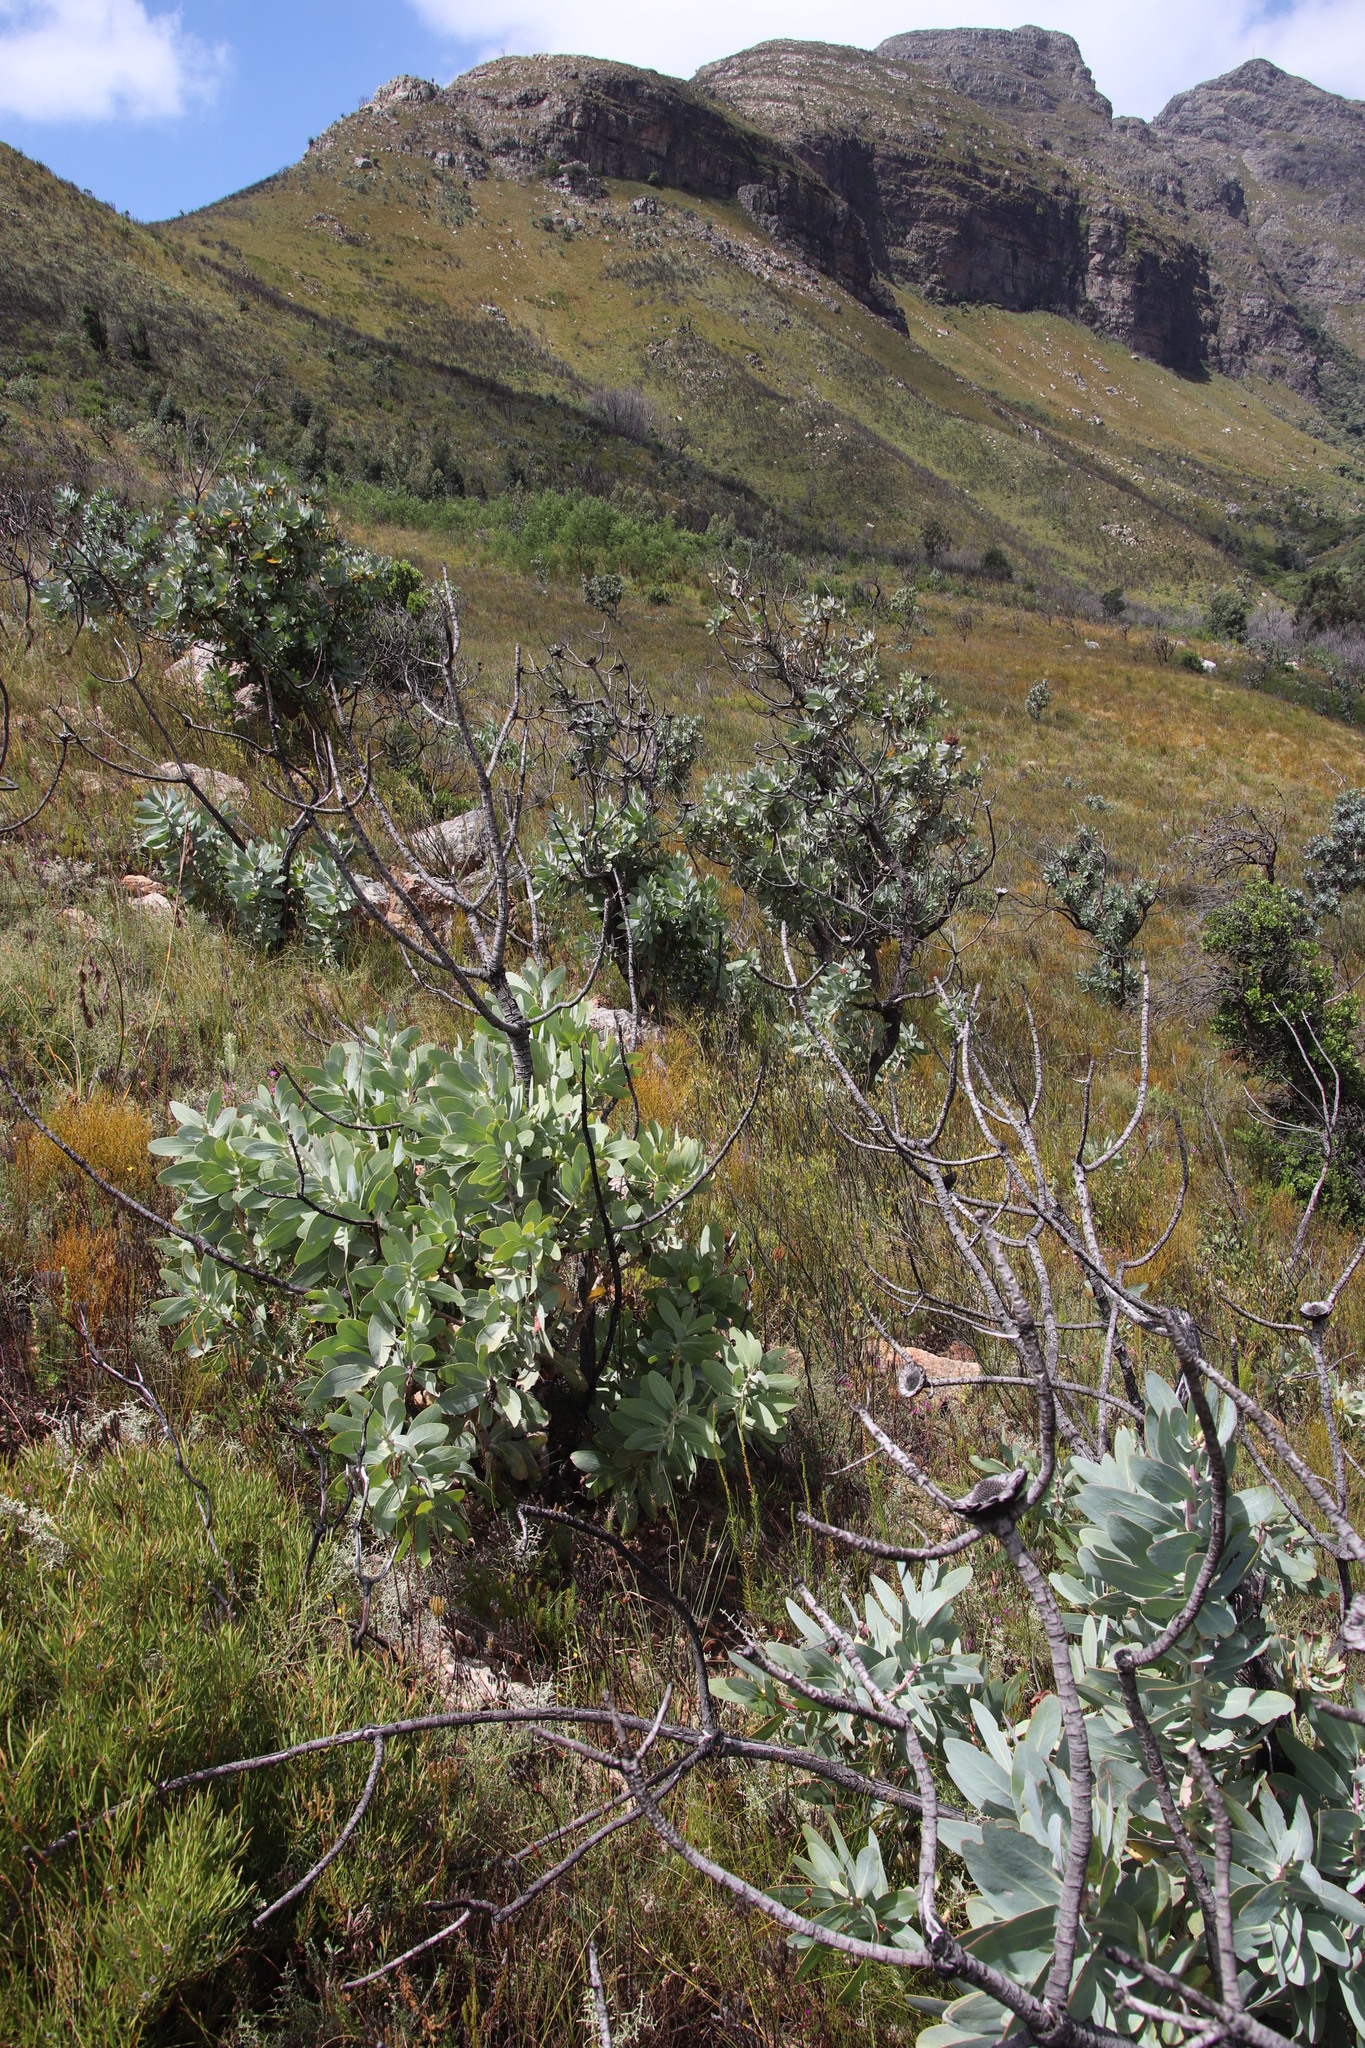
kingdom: Plantae
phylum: Tracheophyta
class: Magnoliopsida
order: Proteales
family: Proteaceae
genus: Protea
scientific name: Protea nitida
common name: Tree protea
